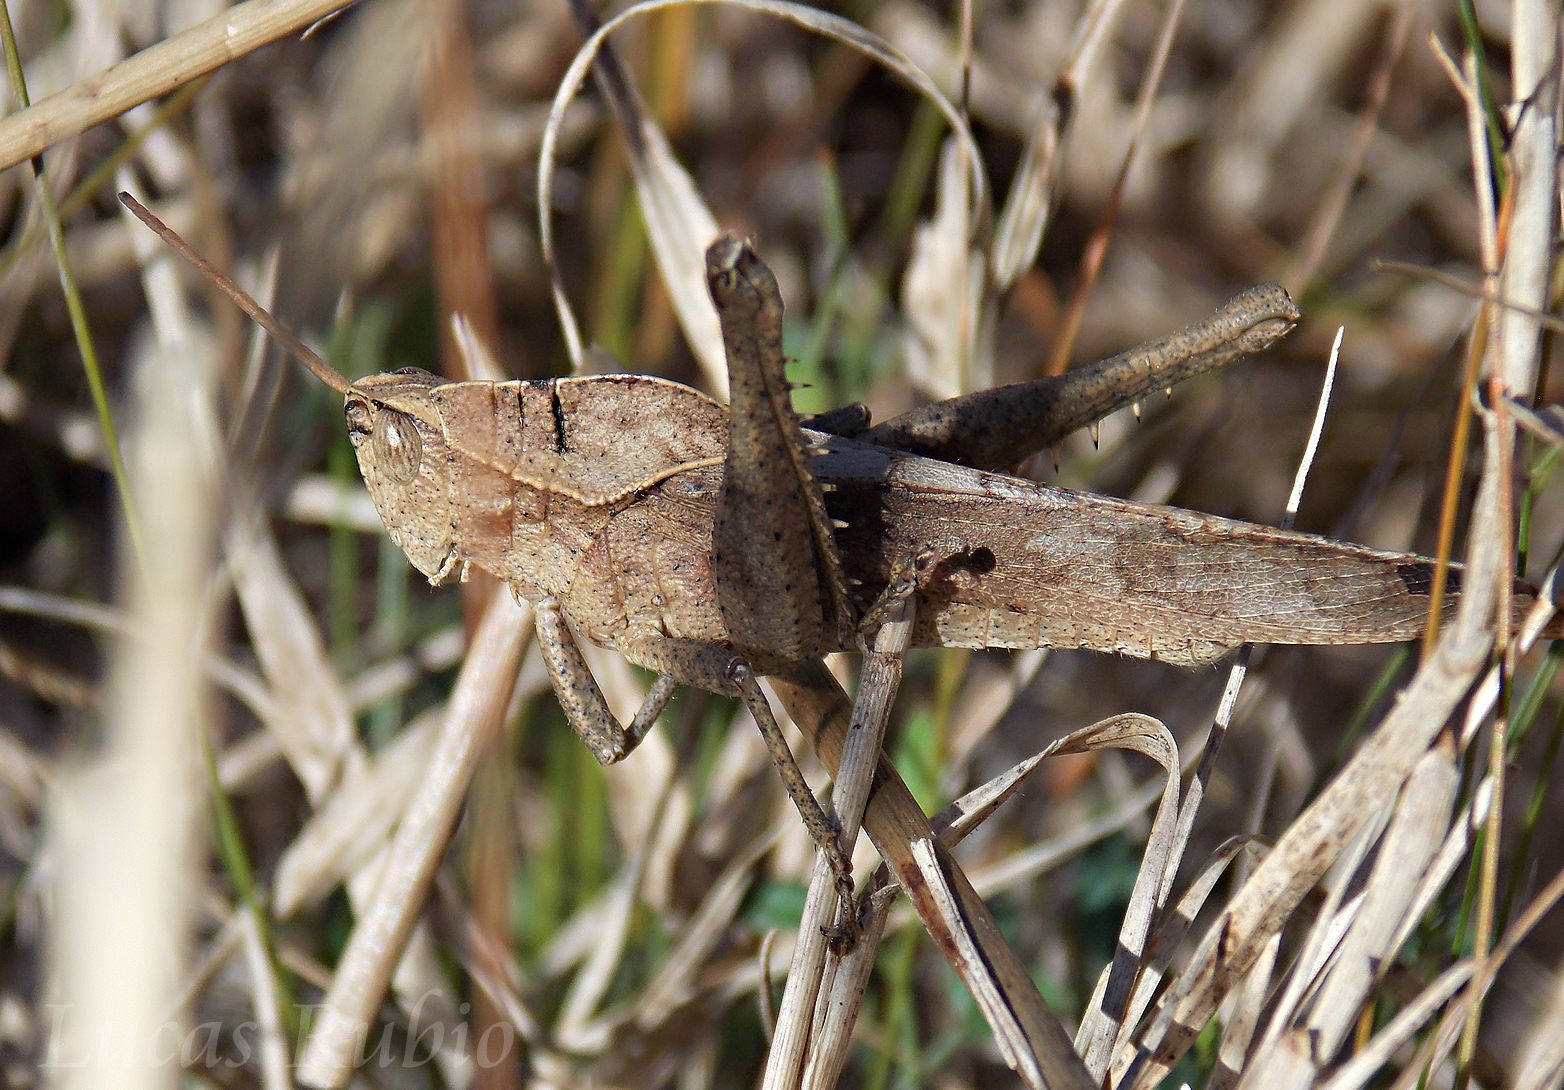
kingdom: Animalia
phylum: Arthropoda
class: Insecta
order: Orthoptera
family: Romaleidae
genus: Xyleus
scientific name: Xyleus discoideus
